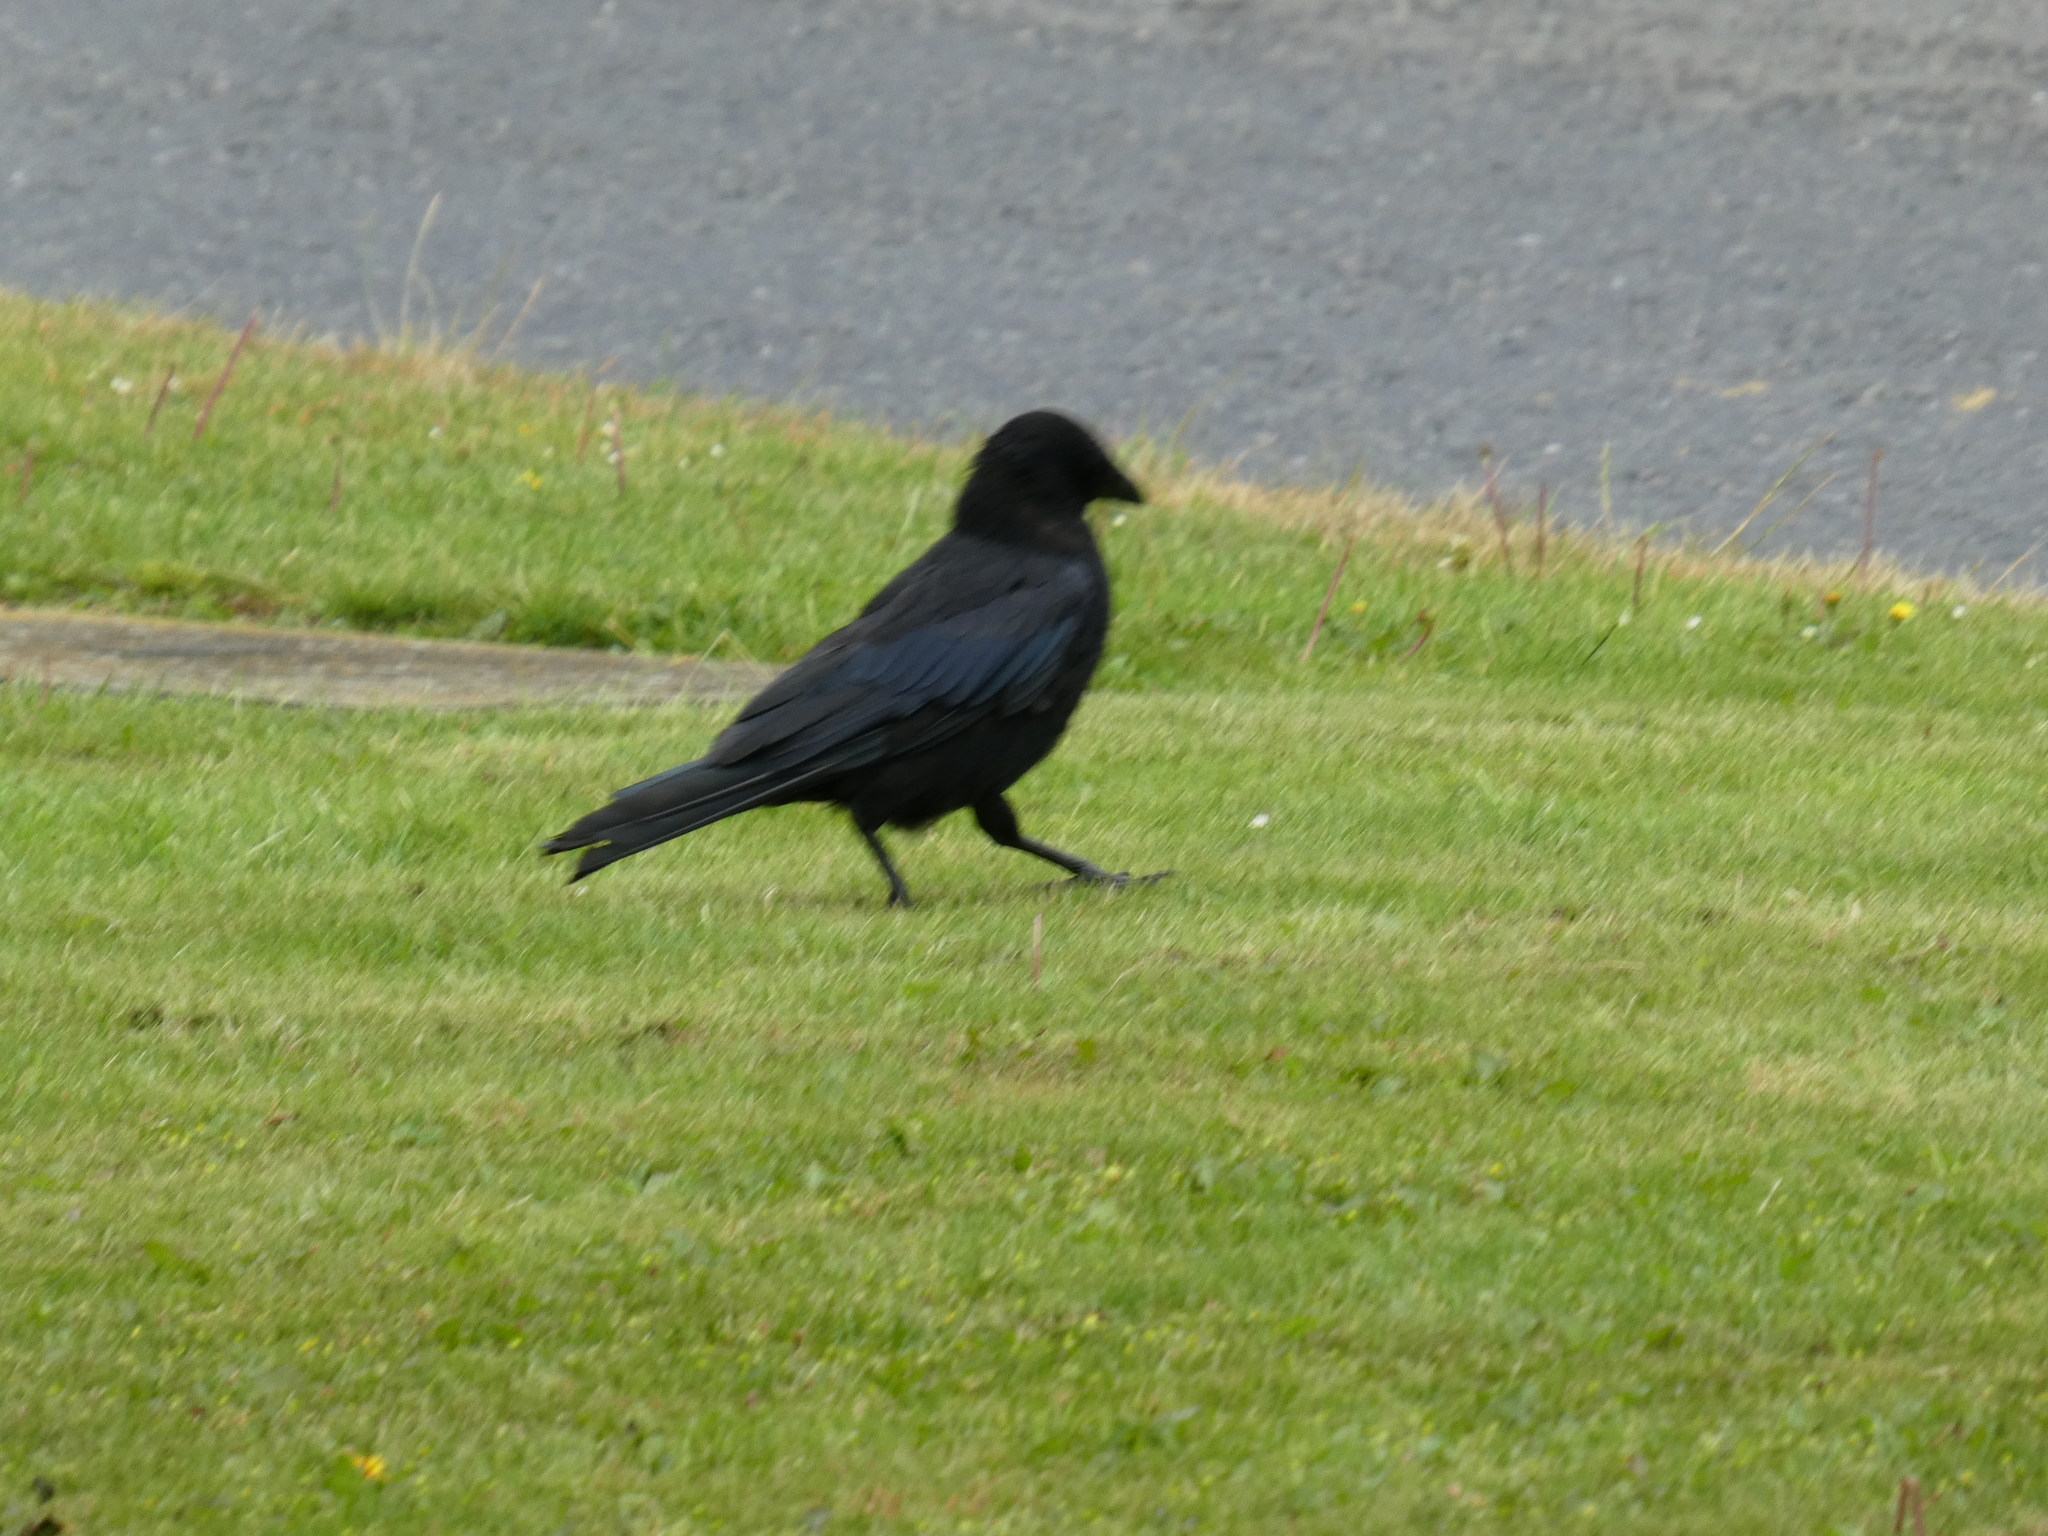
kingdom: Animalia
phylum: Chordata
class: Aves
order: Passeriformes
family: Corvidae
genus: Corvus
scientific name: Corvus corone
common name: Carrion crow
